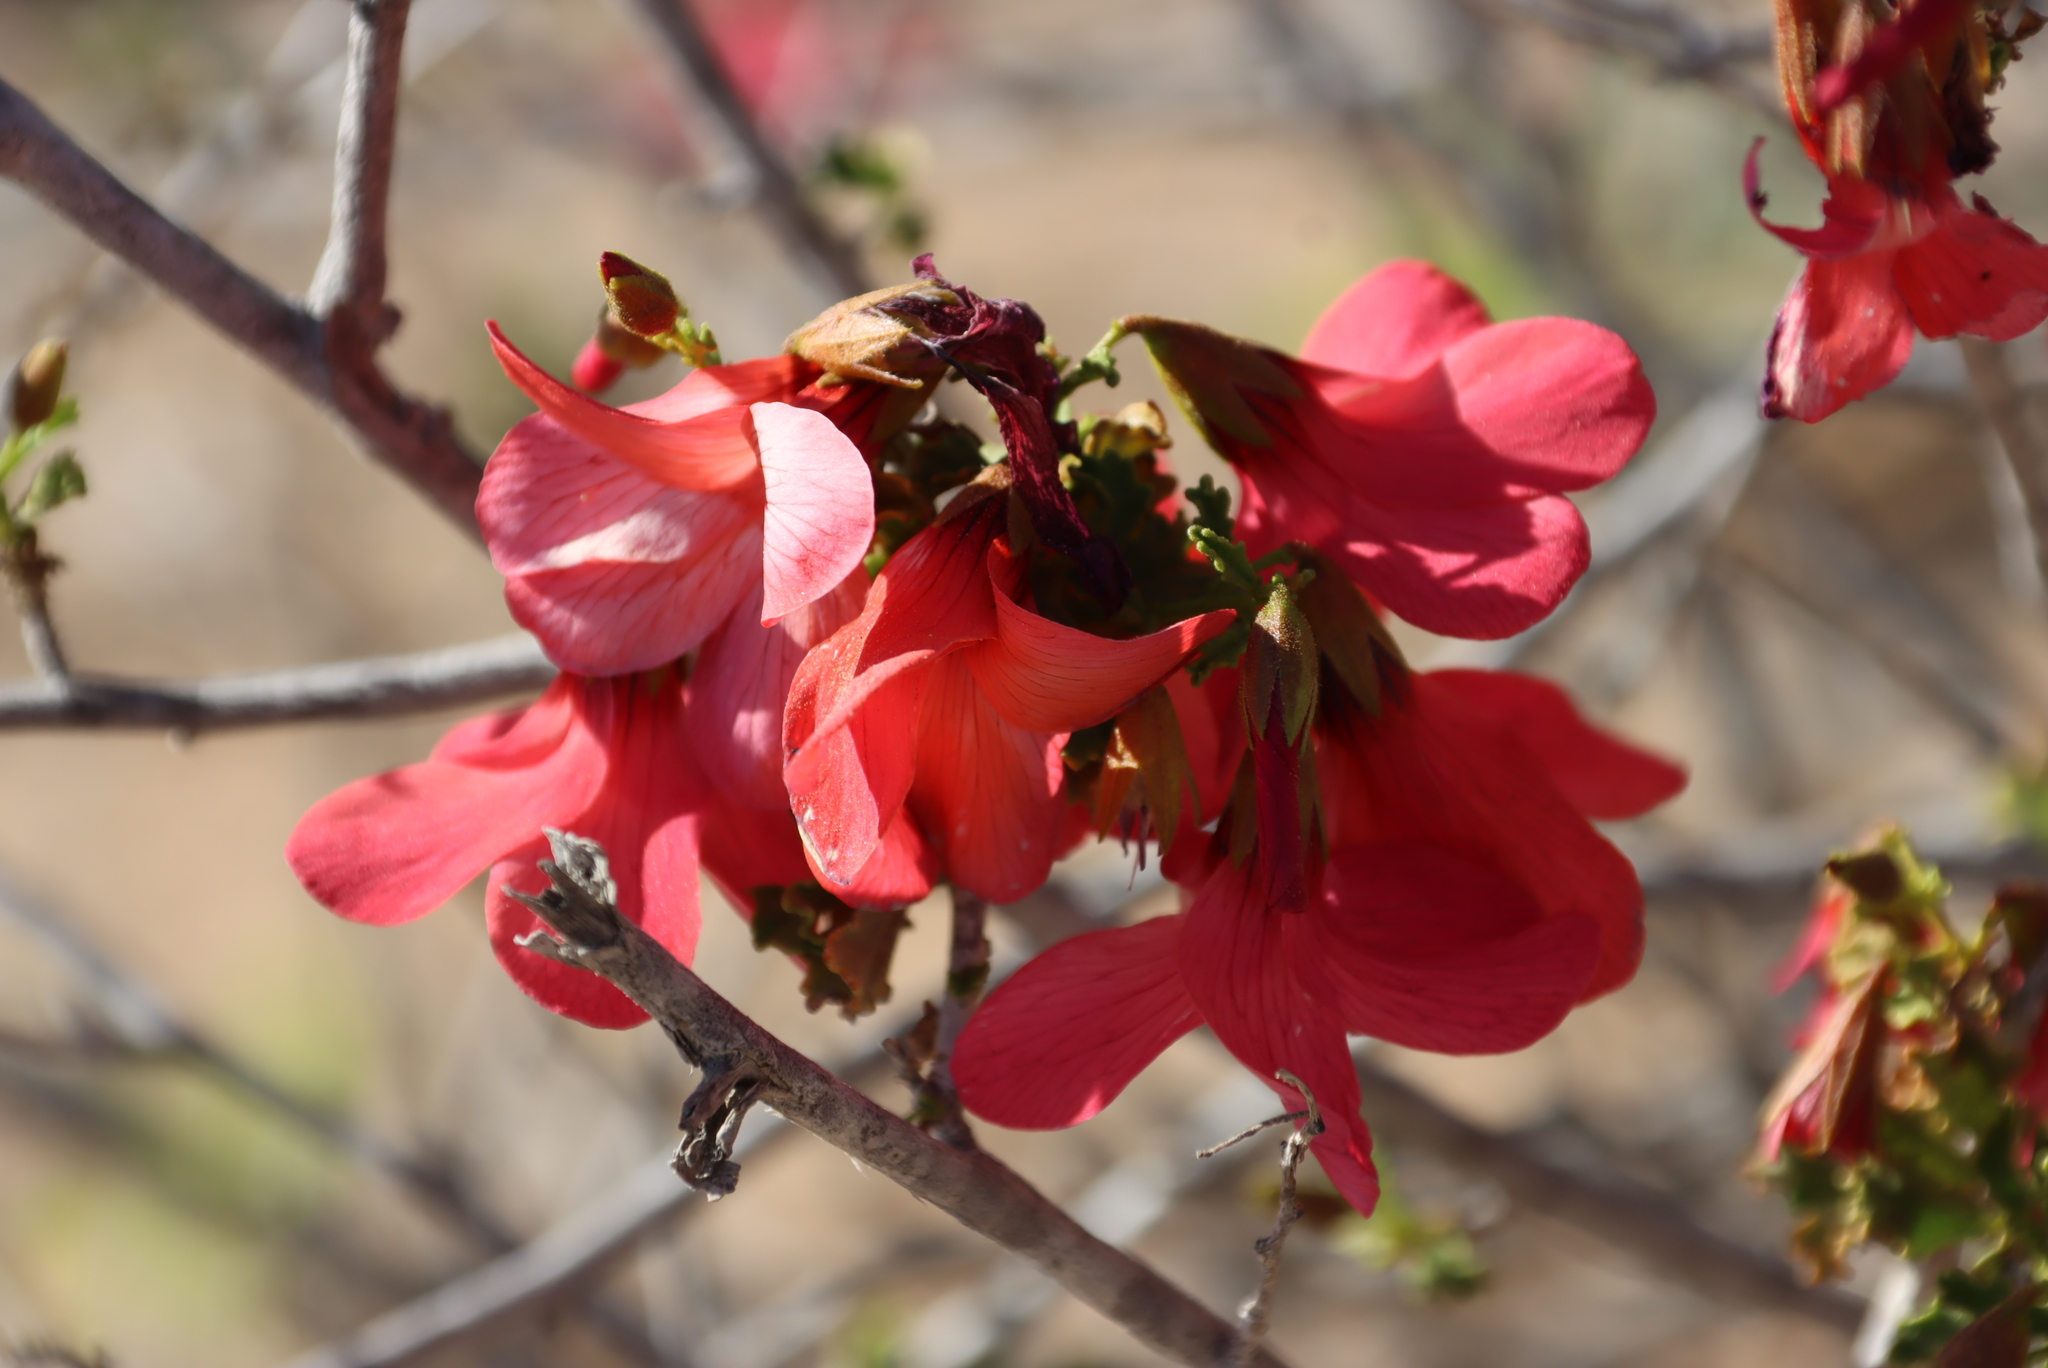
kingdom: Plantae
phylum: Tracheophyta
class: Magnoliopsida
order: Malvales
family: Malvaceae
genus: Hermannia
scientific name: Hermannia stricta
